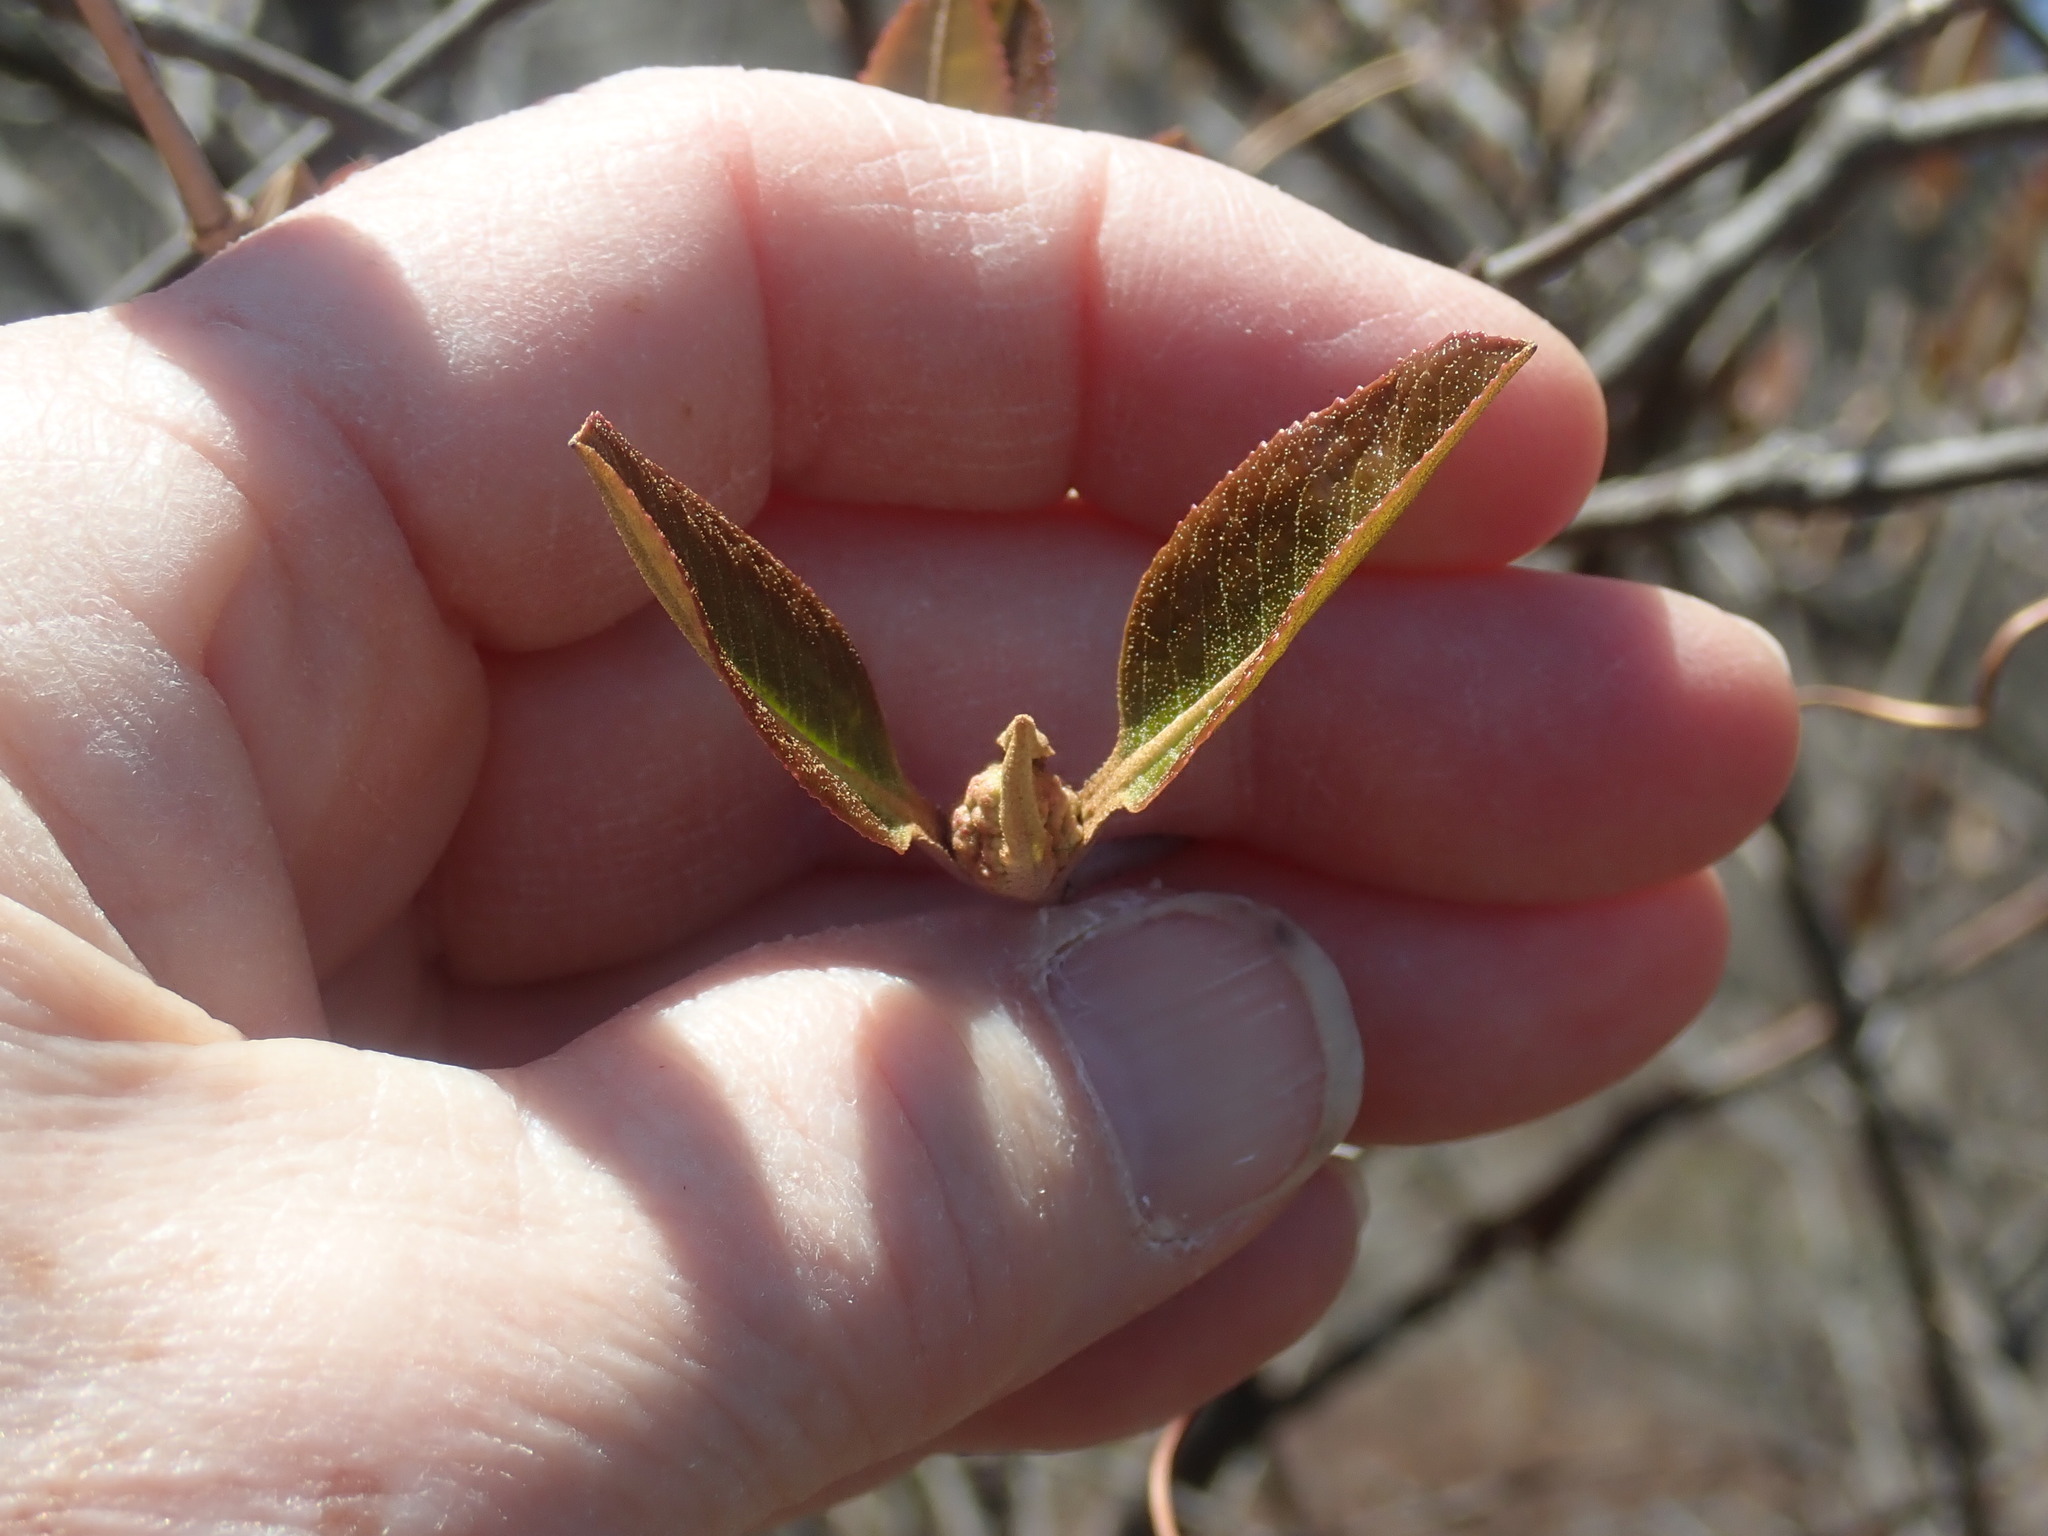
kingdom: Plantae
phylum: Tracheophyta
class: Magnoliopsida
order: Dipsacales
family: Viburnaceae
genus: Viburnum
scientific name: Viburnum
